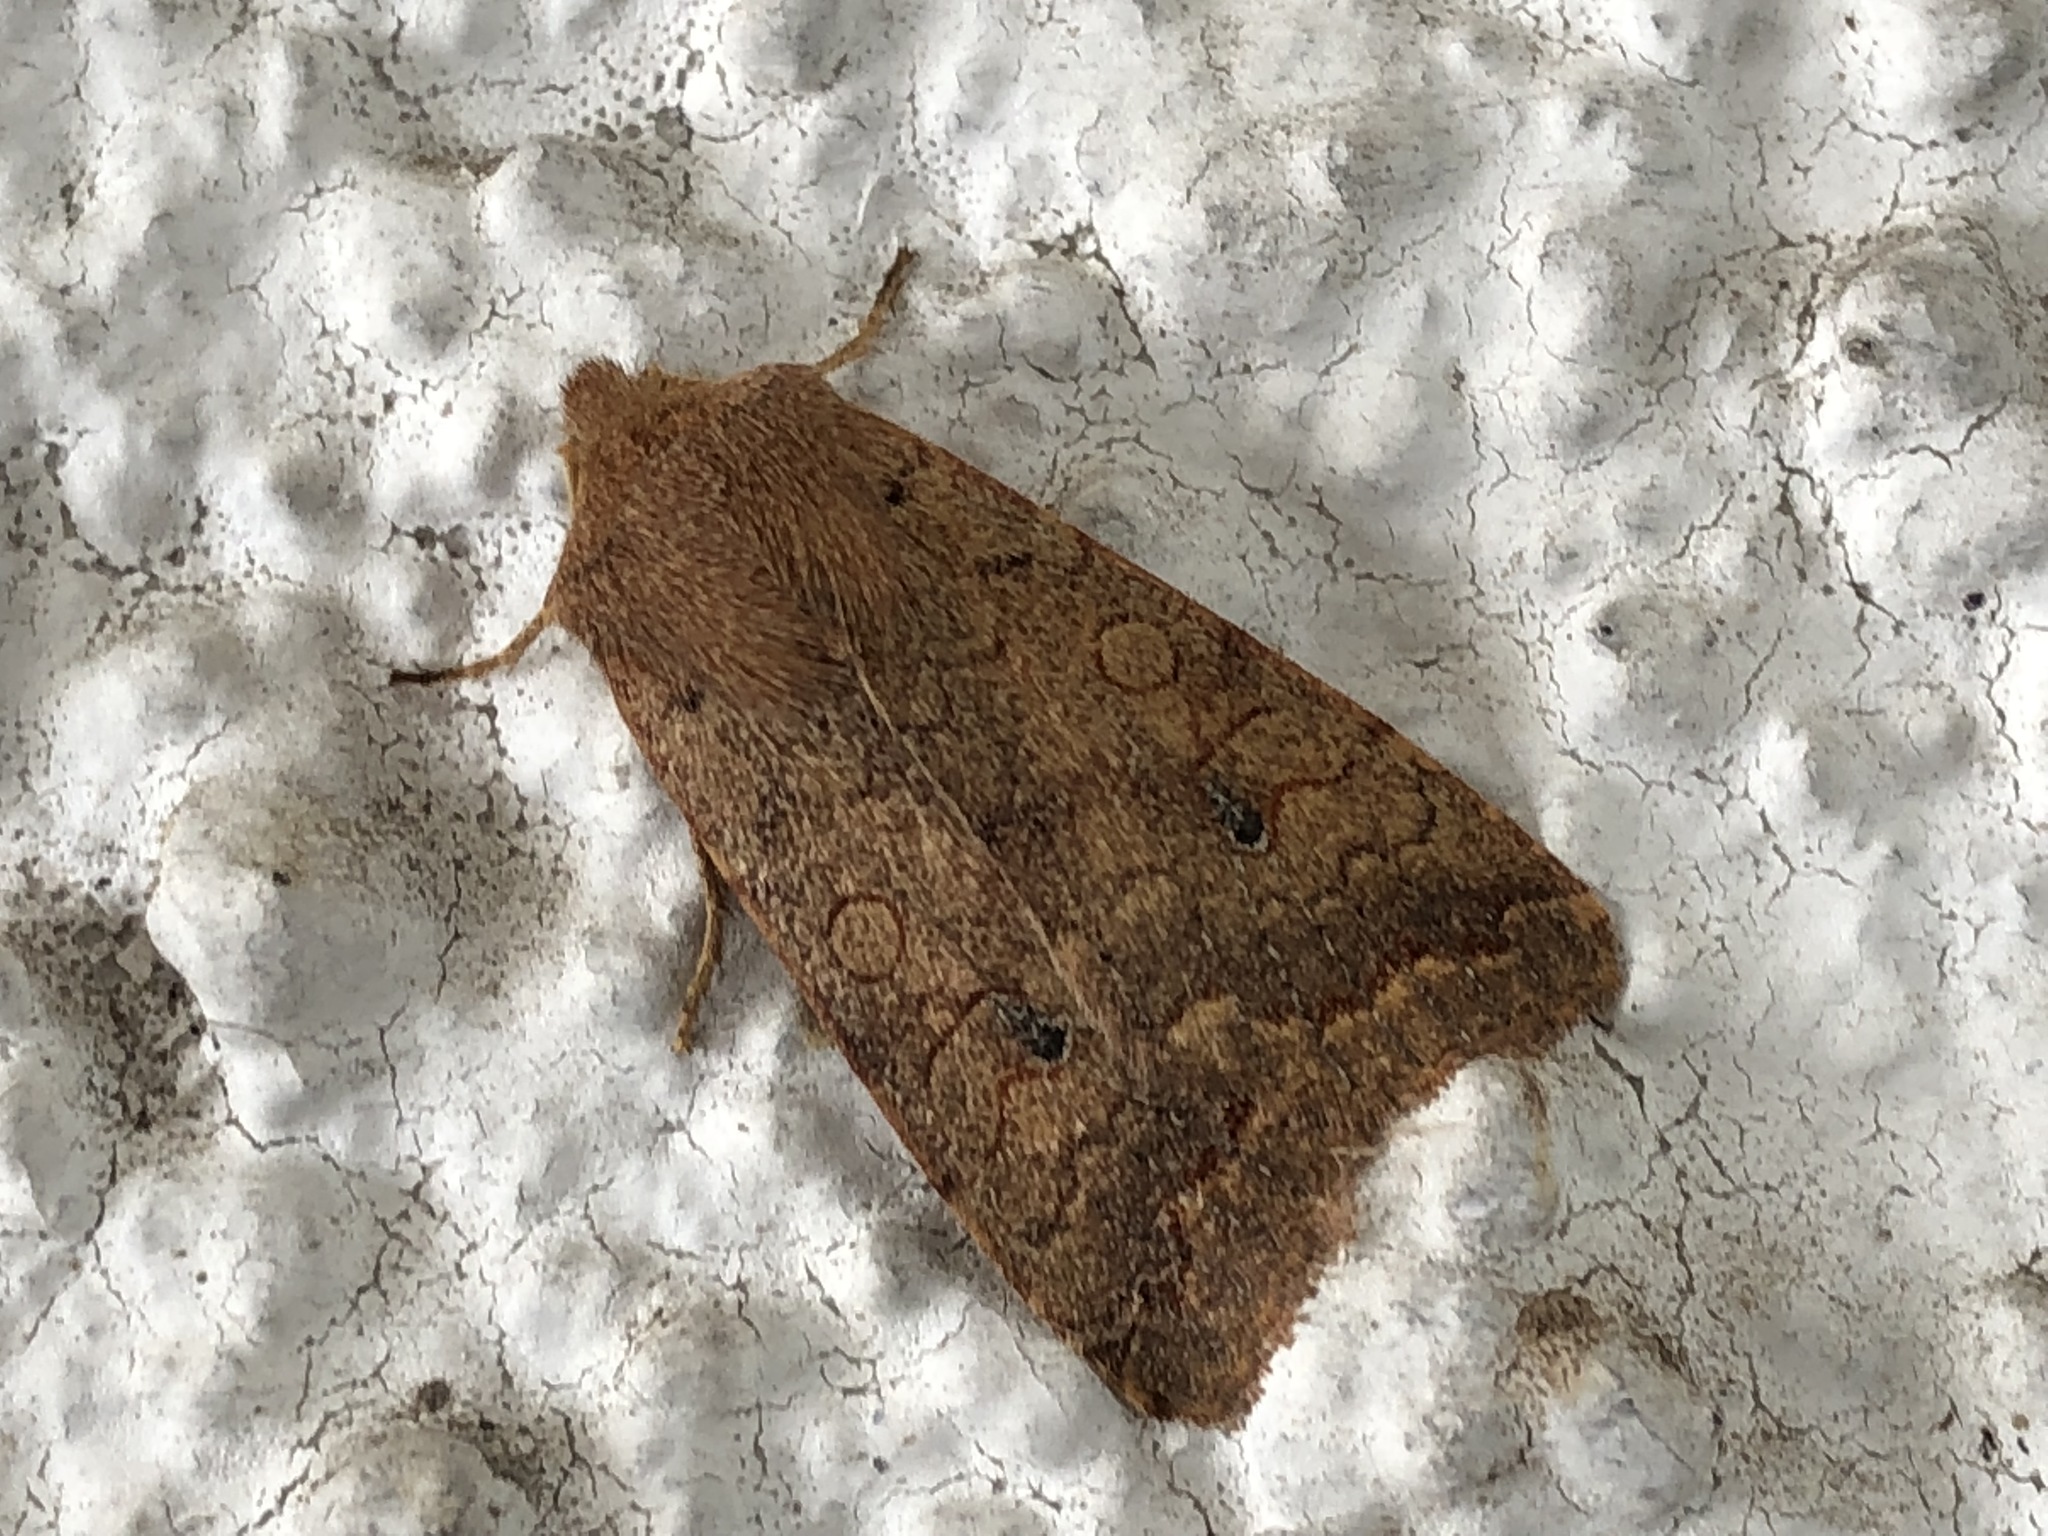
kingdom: Animalia
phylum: Arthropoda
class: Insecta
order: Lepidoptera
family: Noctuidae
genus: Sunira
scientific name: Sunira circellaris
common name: Brick
